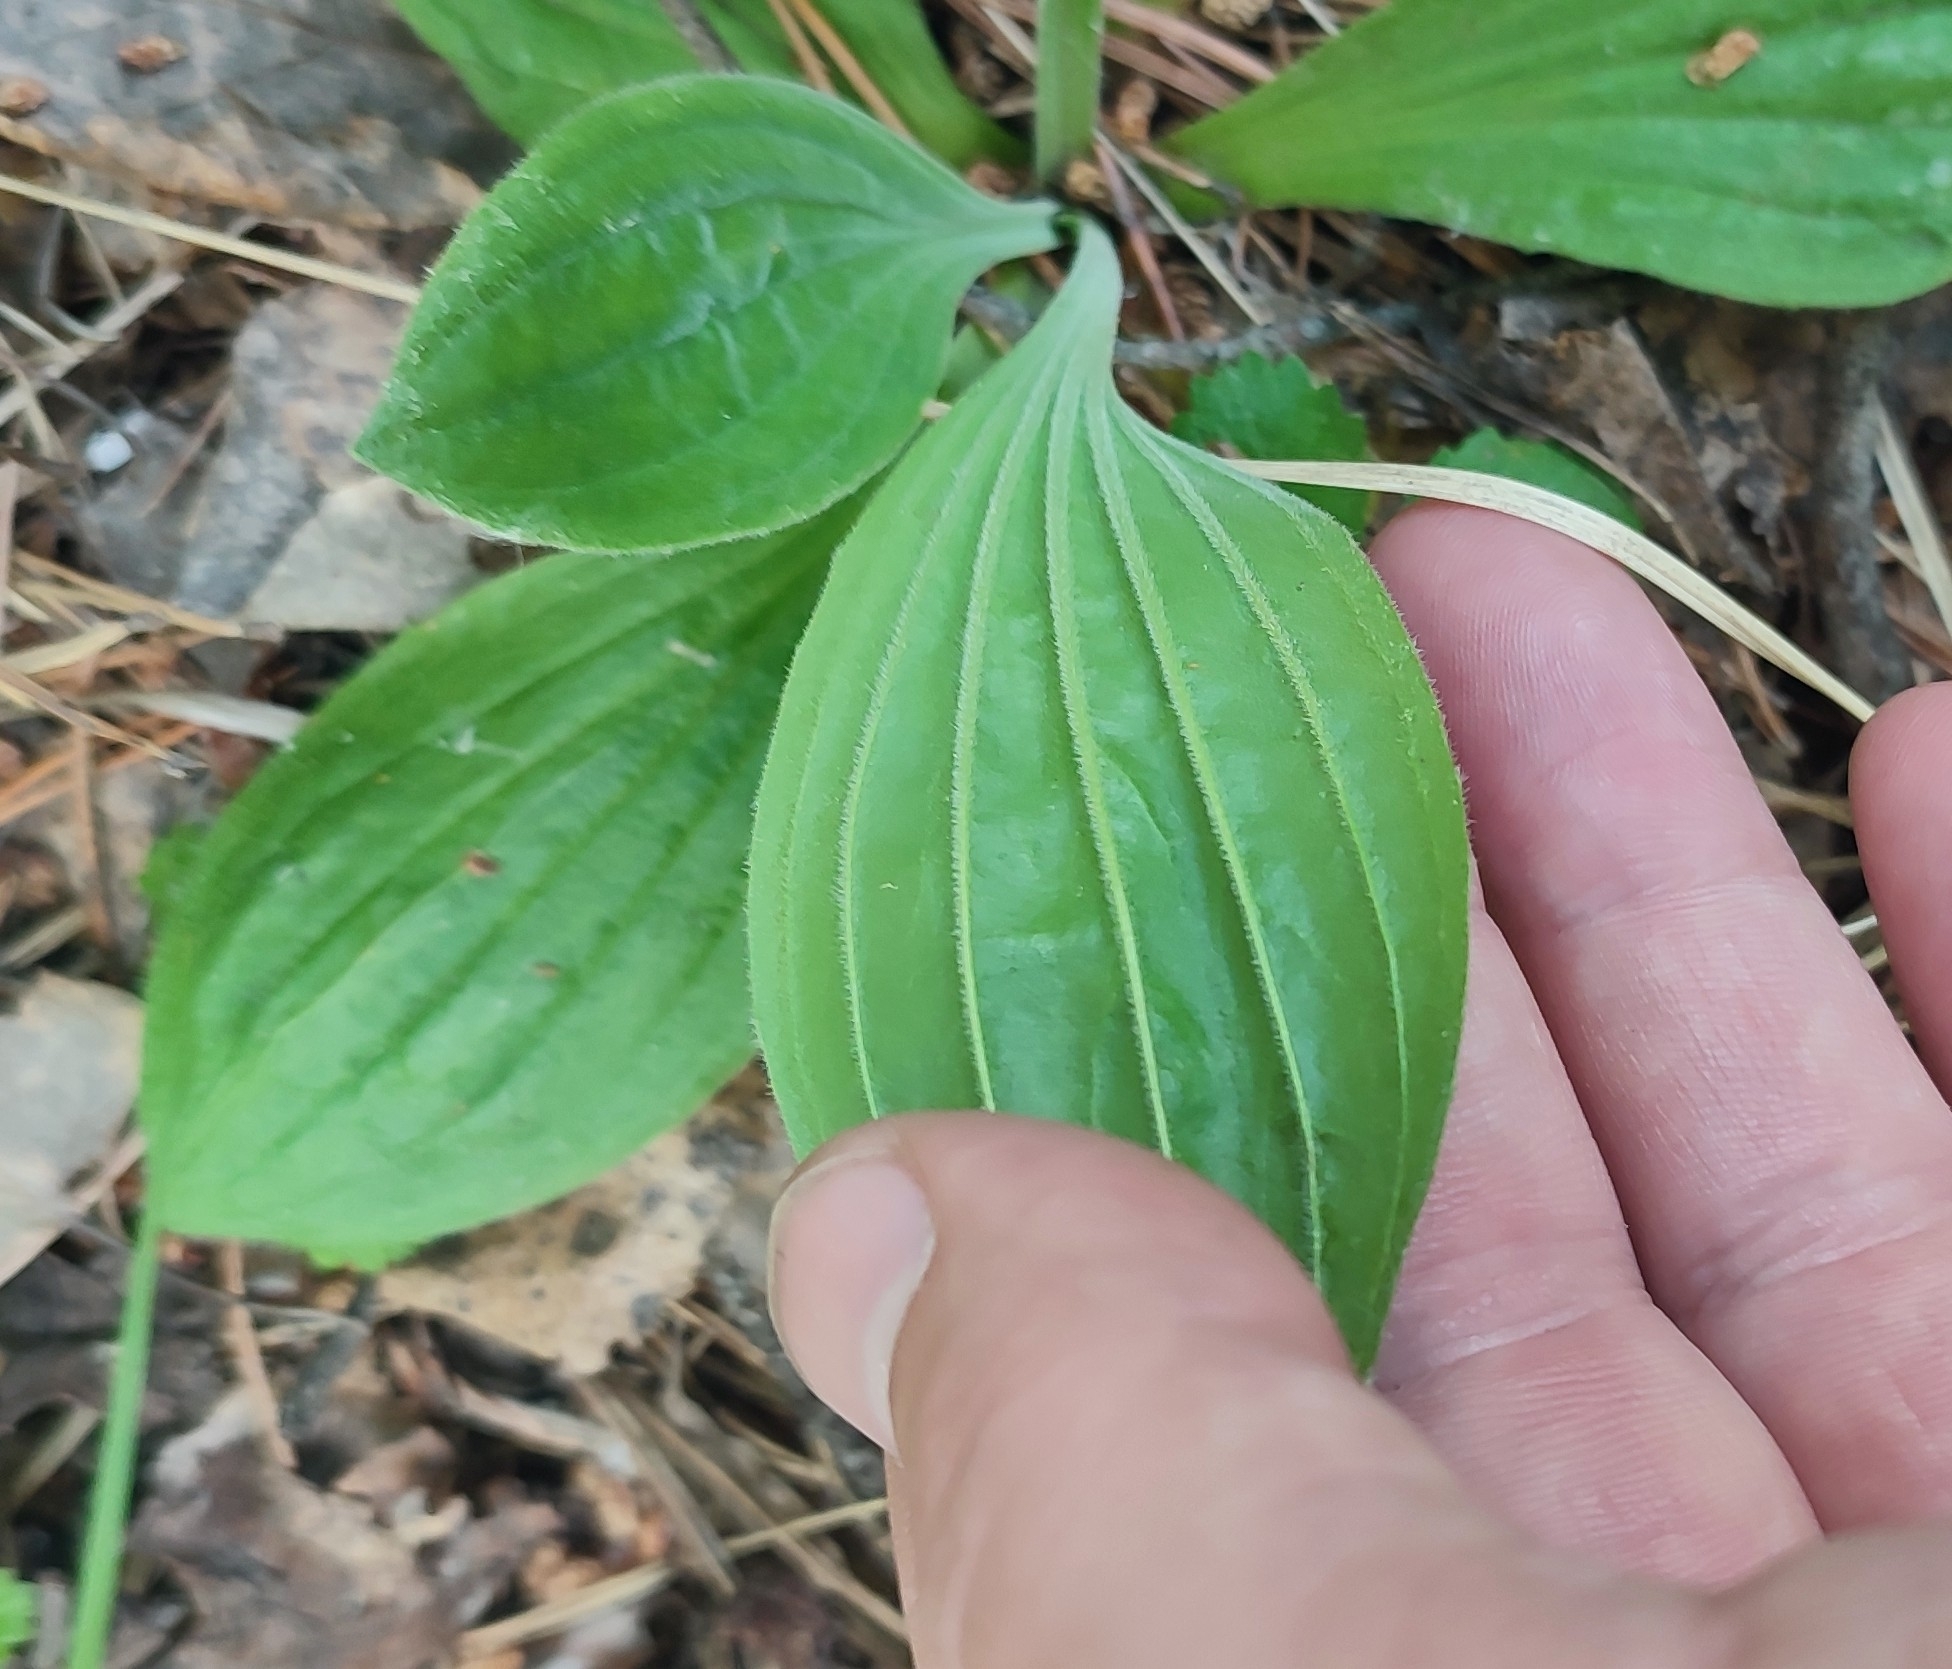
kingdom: Plantae
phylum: Tracheophyta
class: Magnoliopsida
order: Lamiales
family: Plantaginaceae
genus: Plantago
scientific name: Plantago media
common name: Hoary plantain
